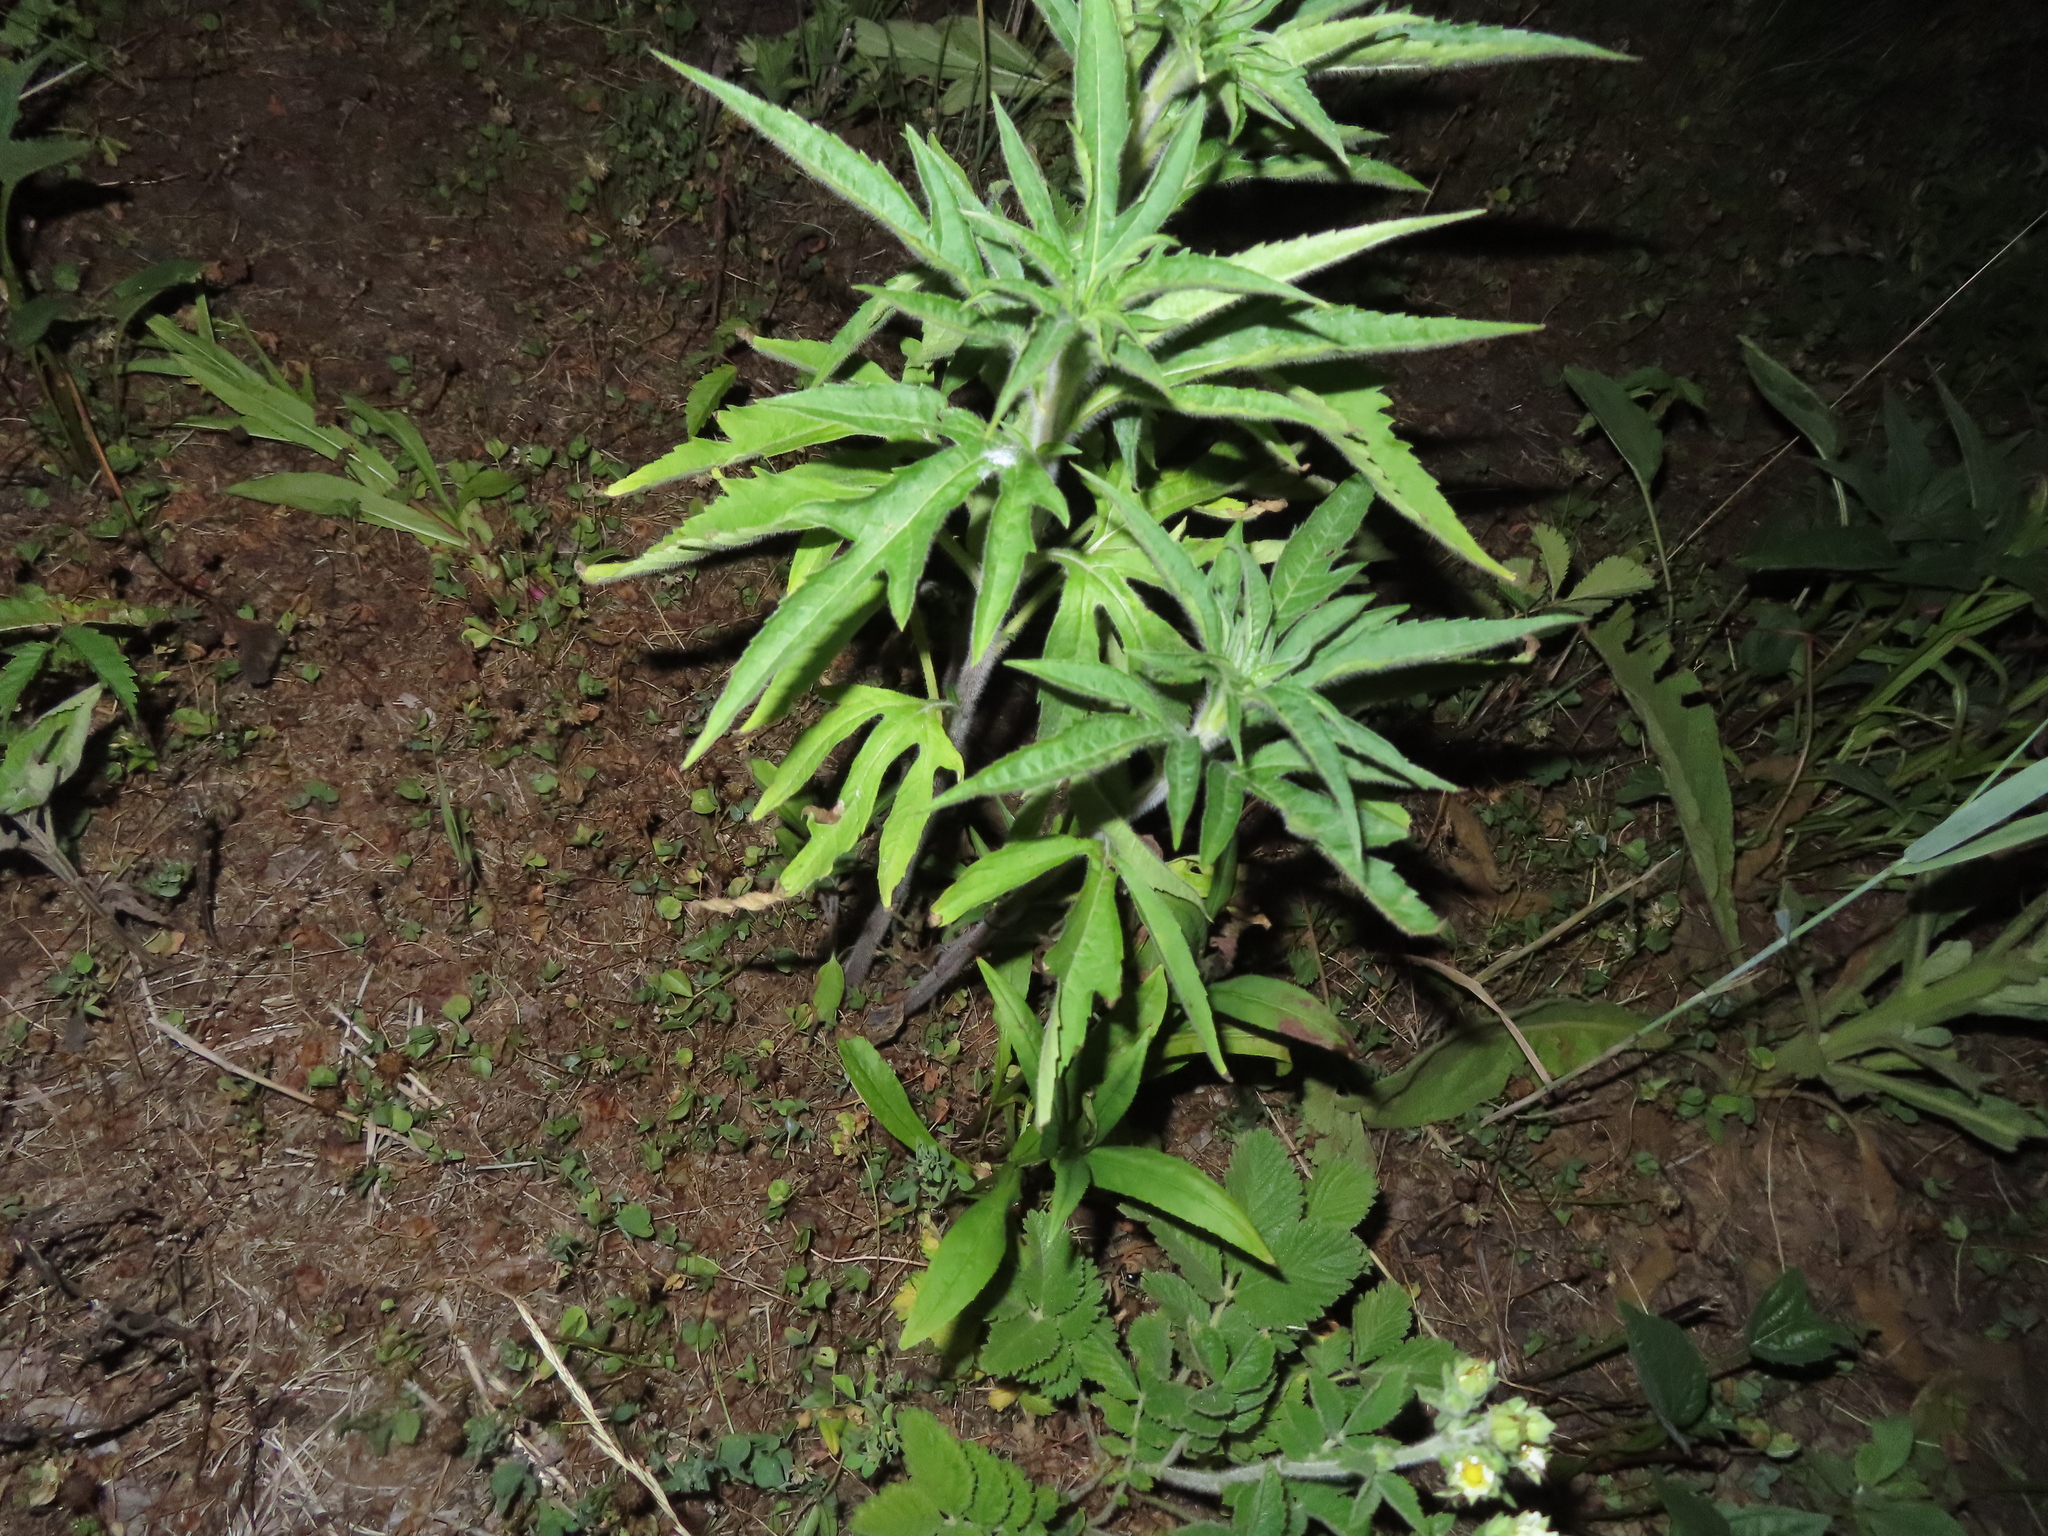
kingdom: Plantae
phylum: Tracheophyta
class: Magnoliopsida
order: Asterales
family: Asteraceae
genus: Ambrosia
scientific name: Ambrosia trifida
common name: Giant ragweed
